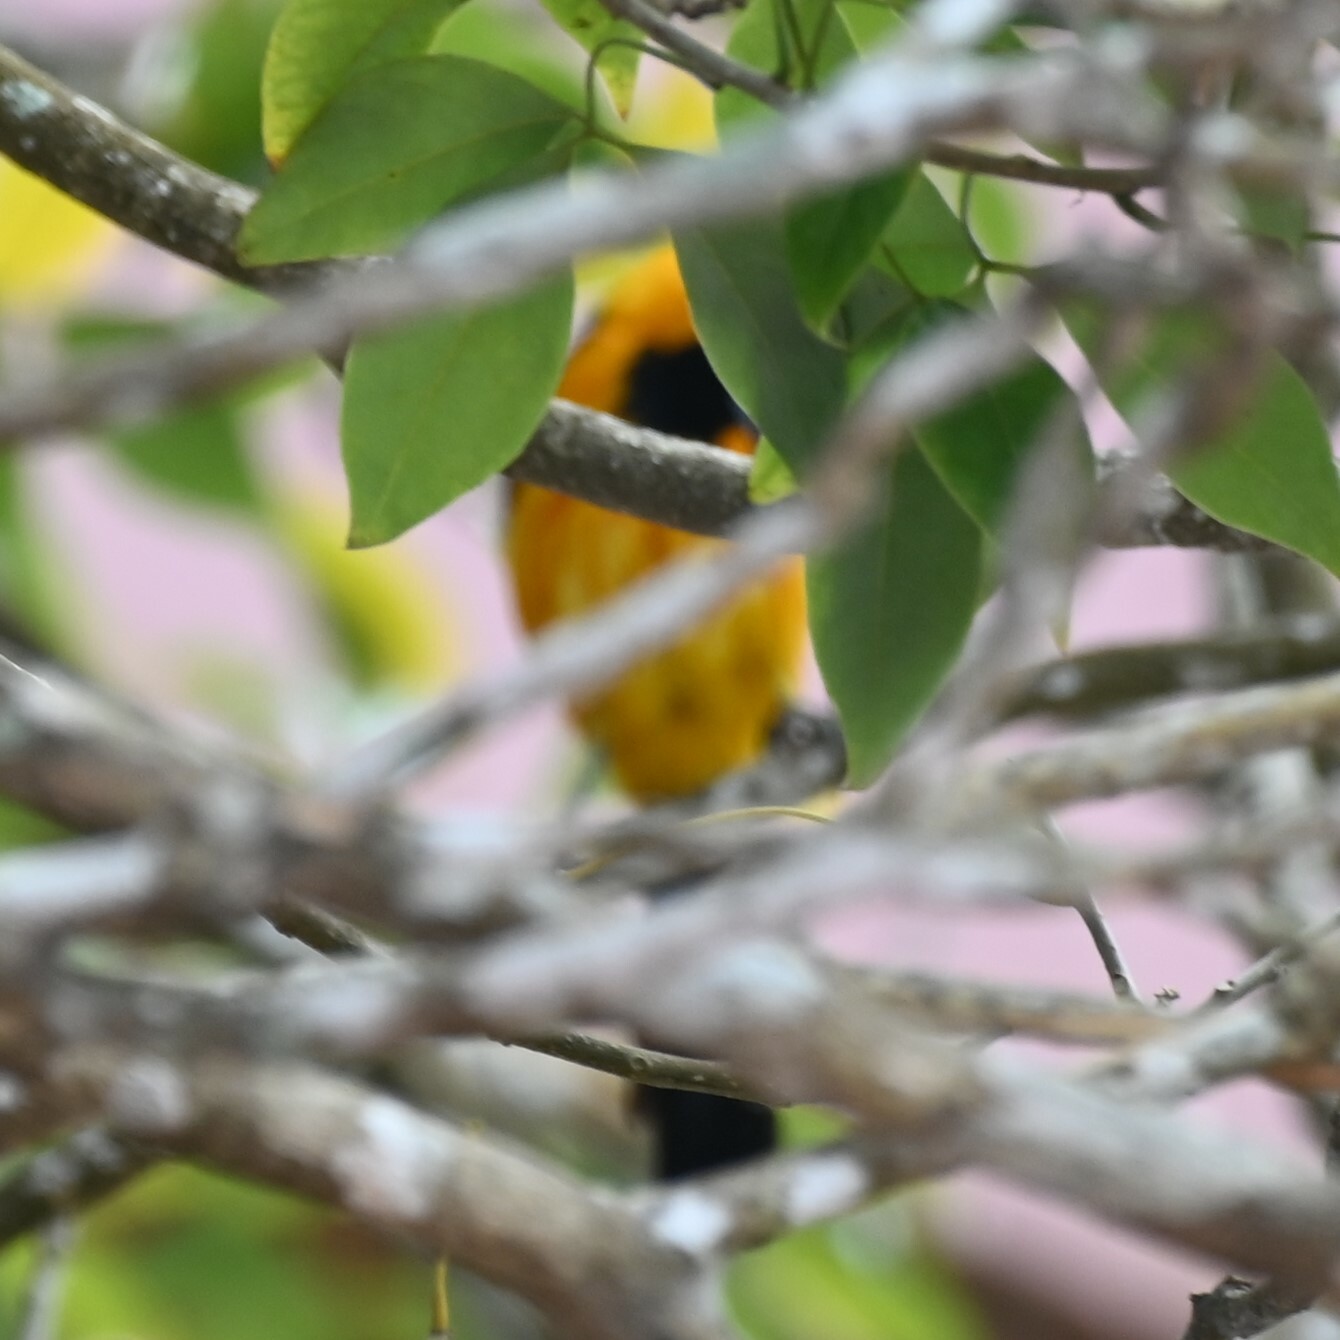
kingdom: Animalia
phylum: Chordata
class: Aves
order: Passeriformes
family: Icteridae
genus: Icterus
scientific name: Icterus cucullatus
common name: Hooded oriole
